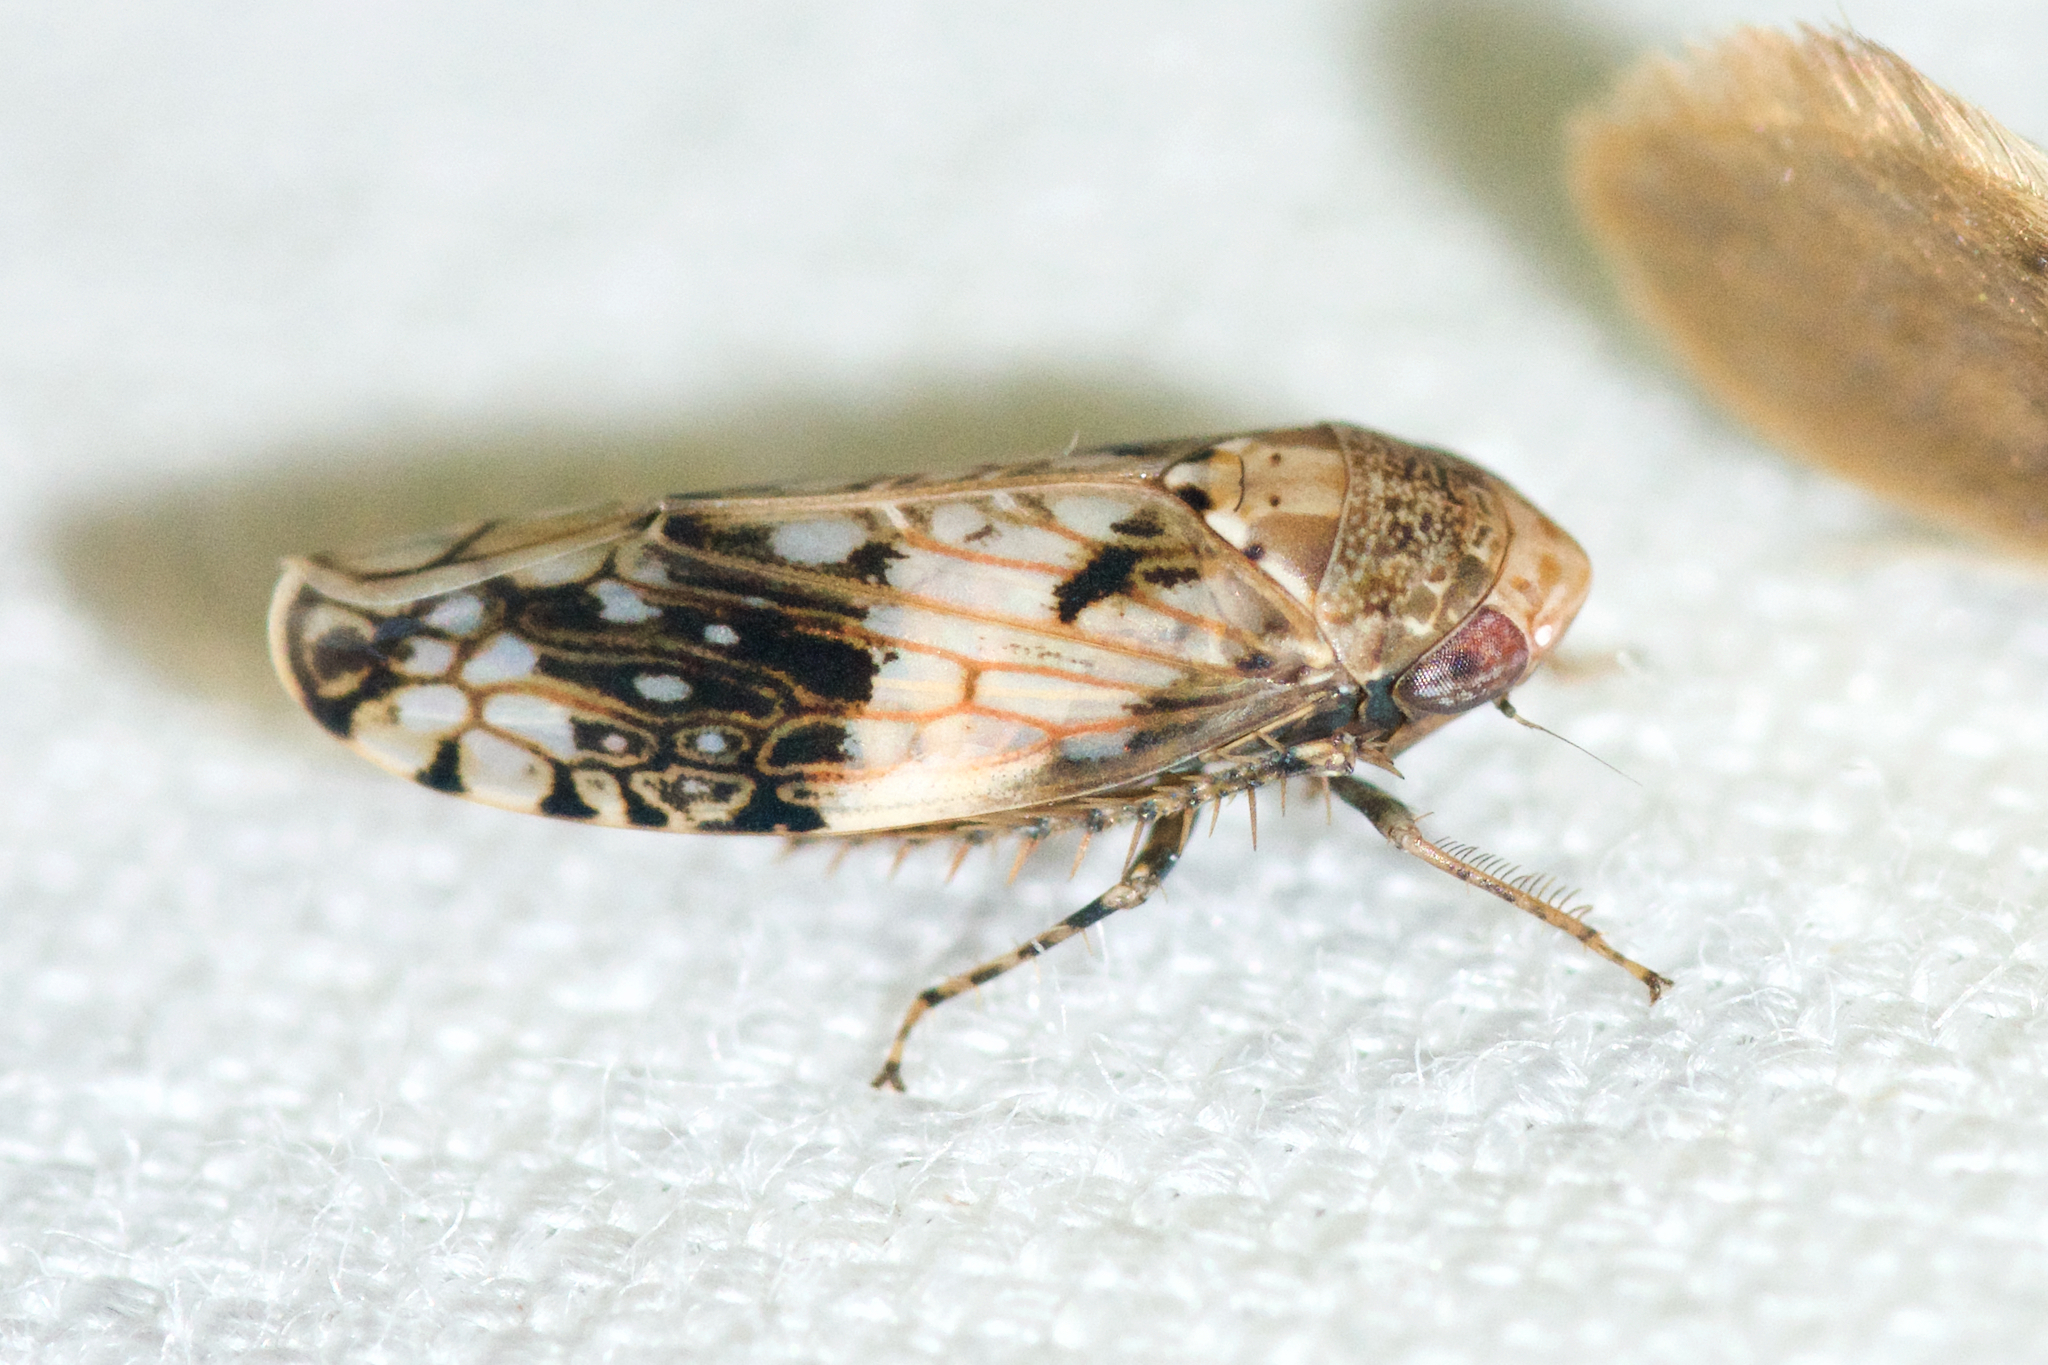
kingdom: Animalia
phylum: Arthropoda
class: Insecta
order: Hemiptera
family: Cicadellidae
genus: Menosoma
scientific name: Menosoma cinctum
